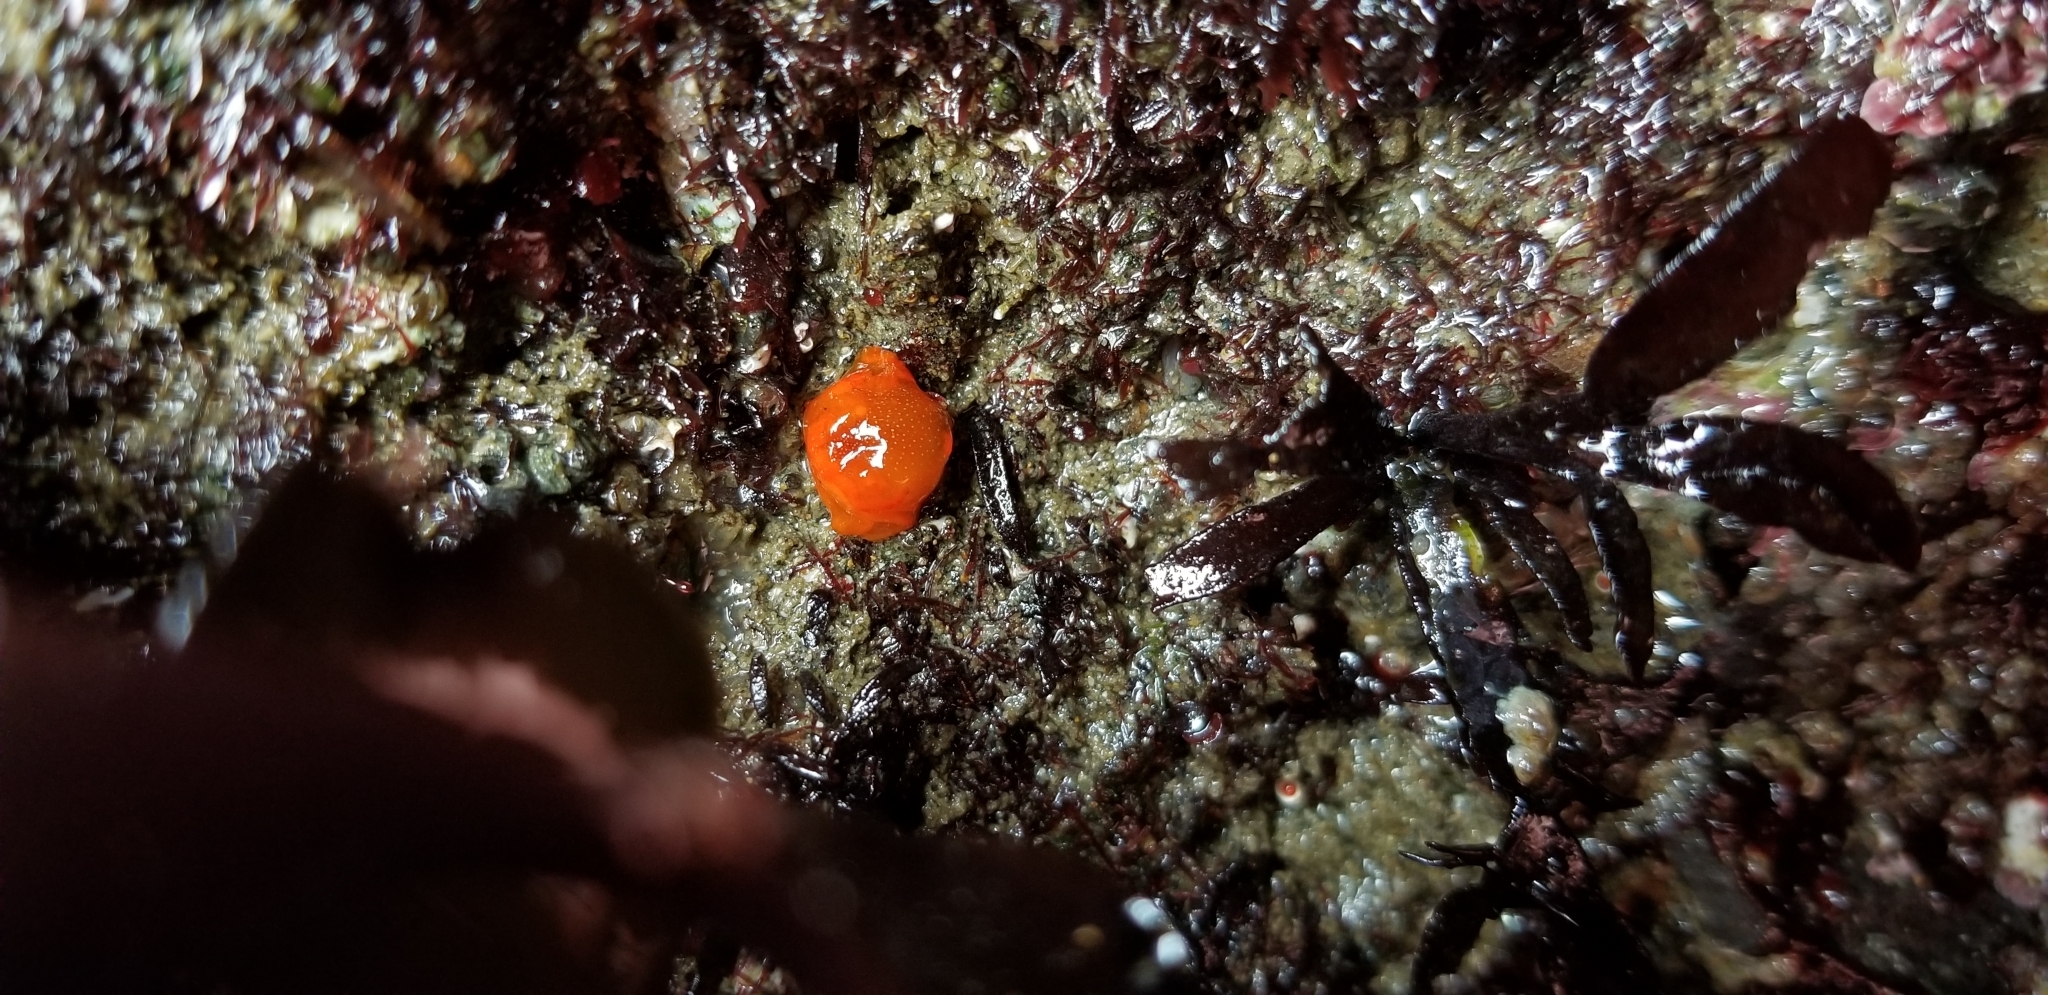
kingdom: Animalia
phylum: Mollusca
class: Gastropoda
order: Nudibranchia
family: Polyceridae
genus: Triopha
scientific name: Triopha maculata
